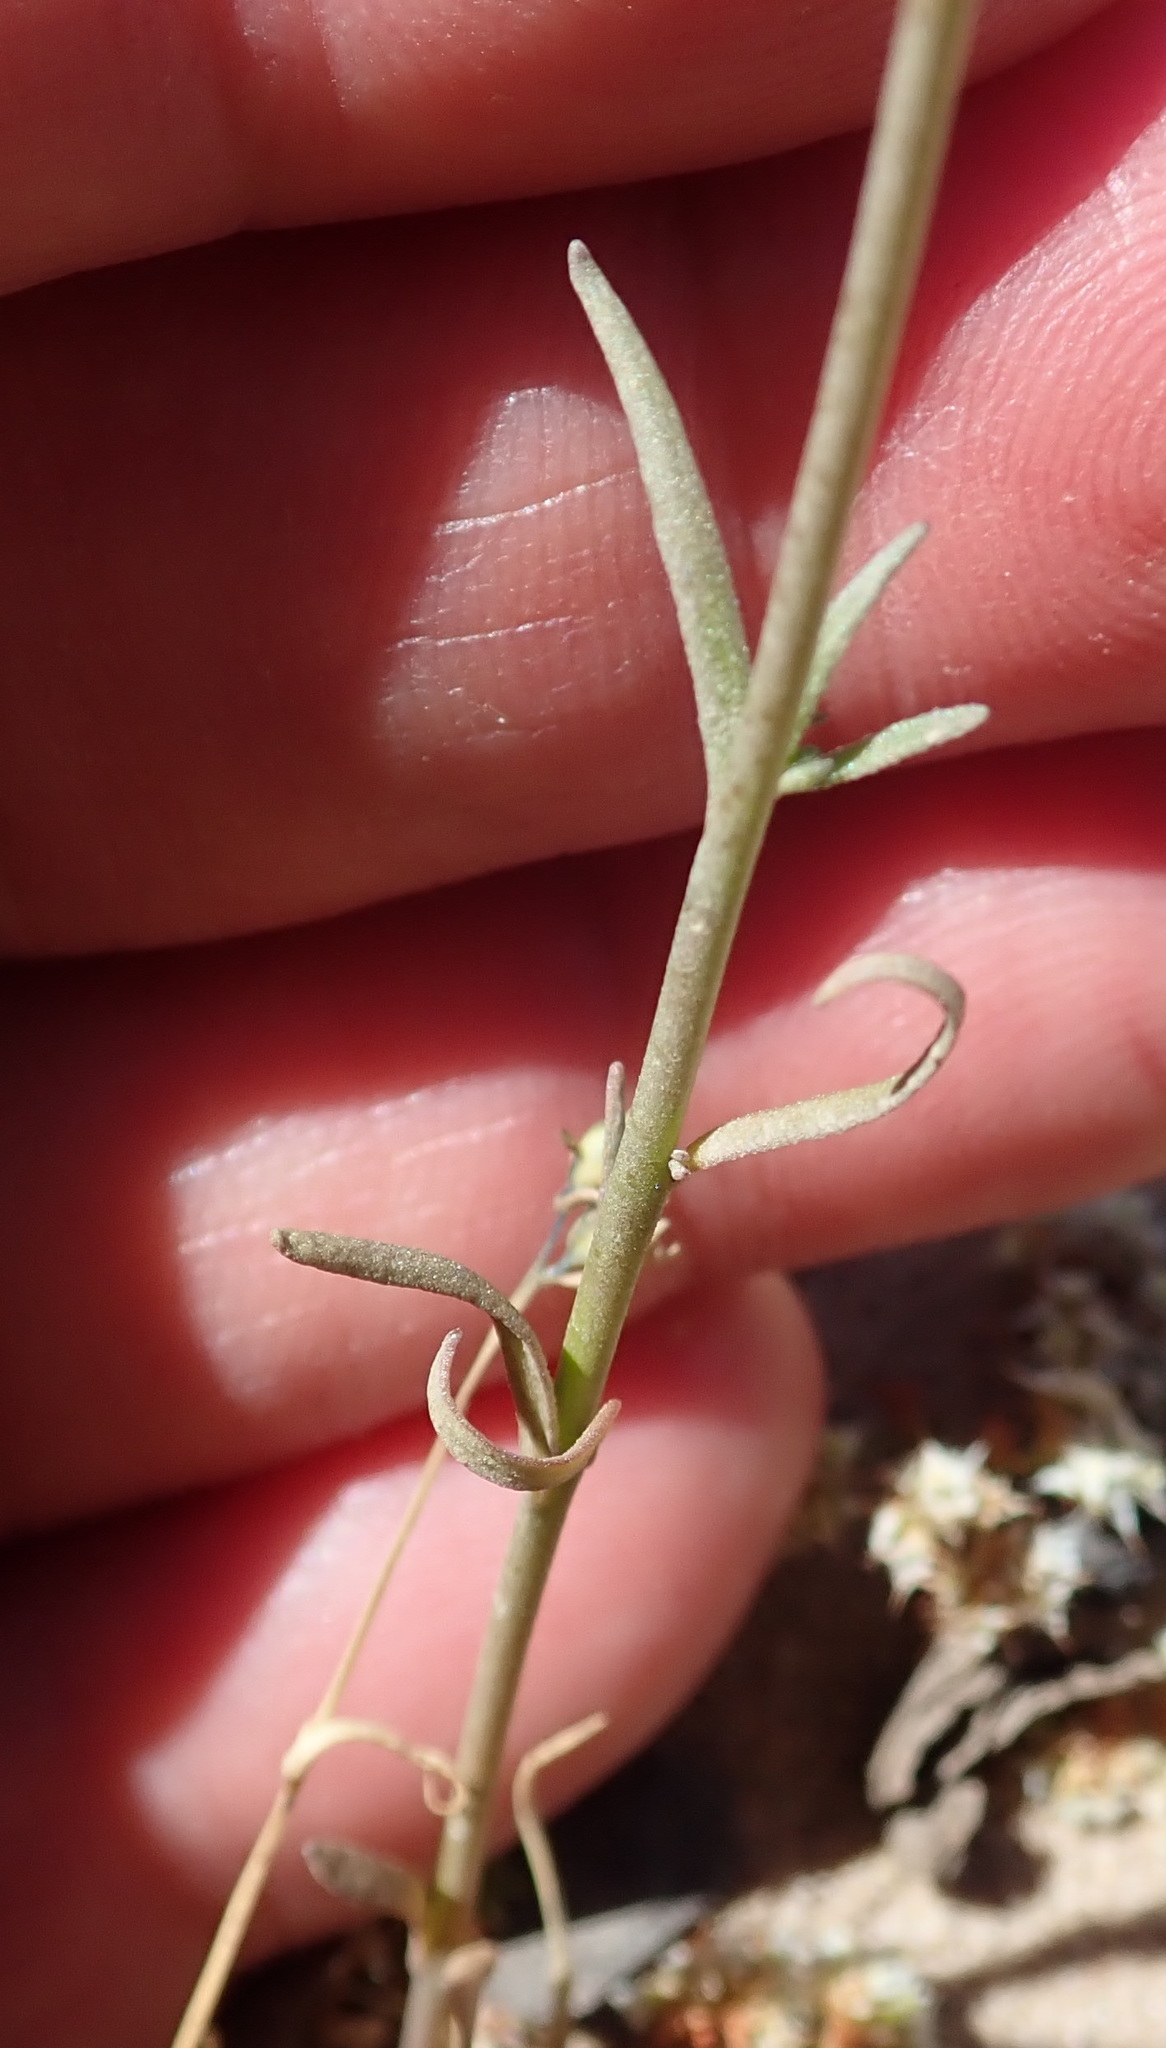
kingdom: Plantae
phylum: Tracheophyta
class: Magnoliopsida
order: Lamiales
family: Plantaginaceae
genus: Nuttallanthus
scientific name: Nuttallanthus texanus
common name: Texas toadflax
